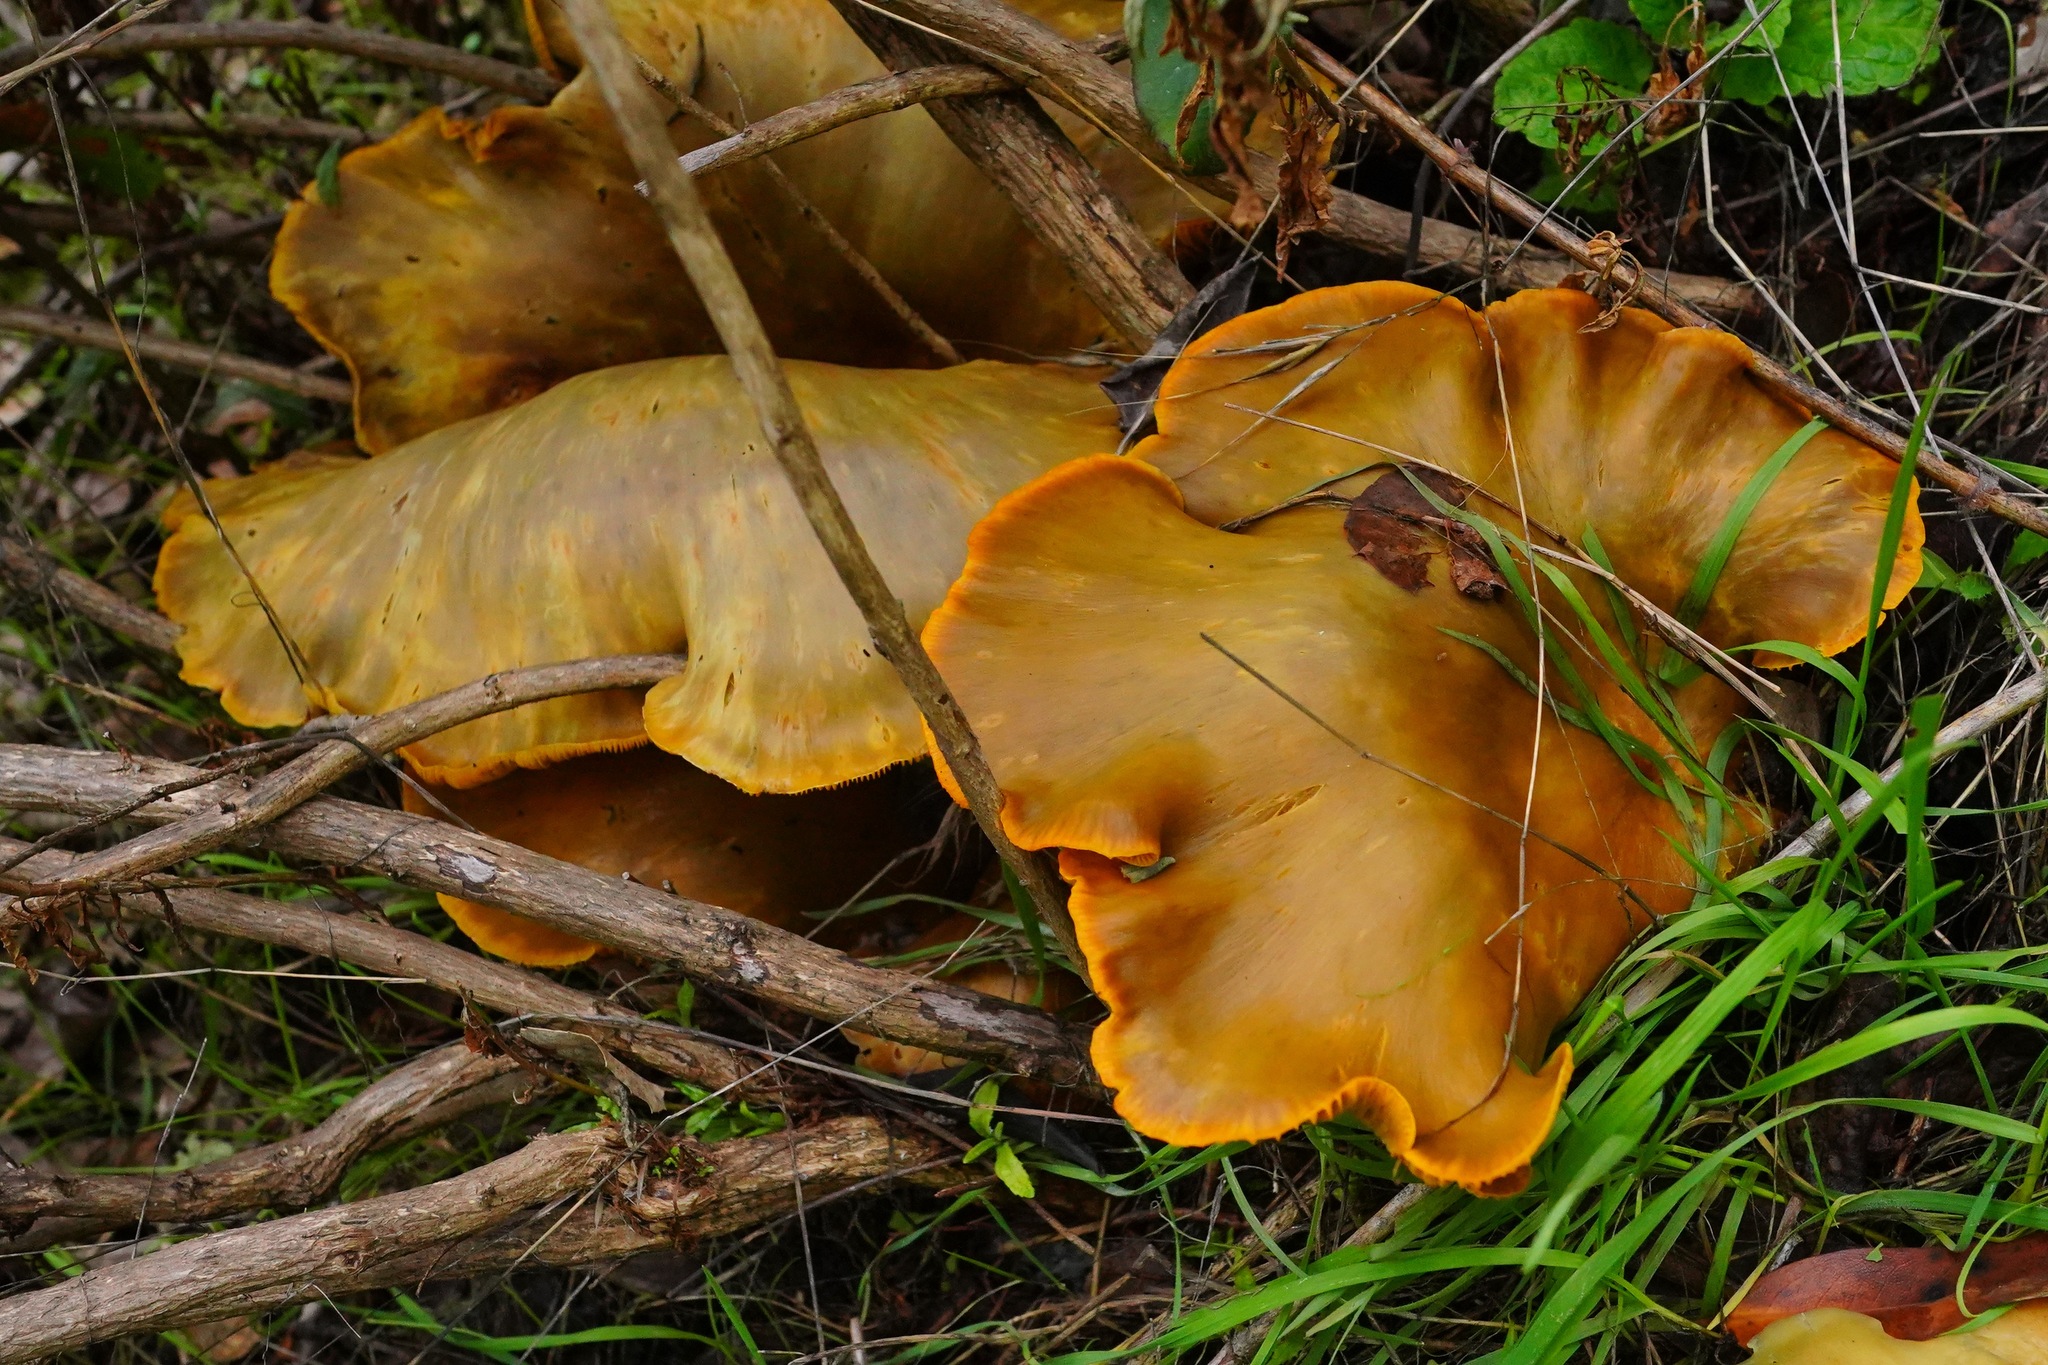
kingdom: Fungi
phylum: Basidiomycota
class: Agaricomycetes
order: Agaricales
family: Omphalotaceae
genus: Omphalotus
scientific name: Omphalotus olivascens
